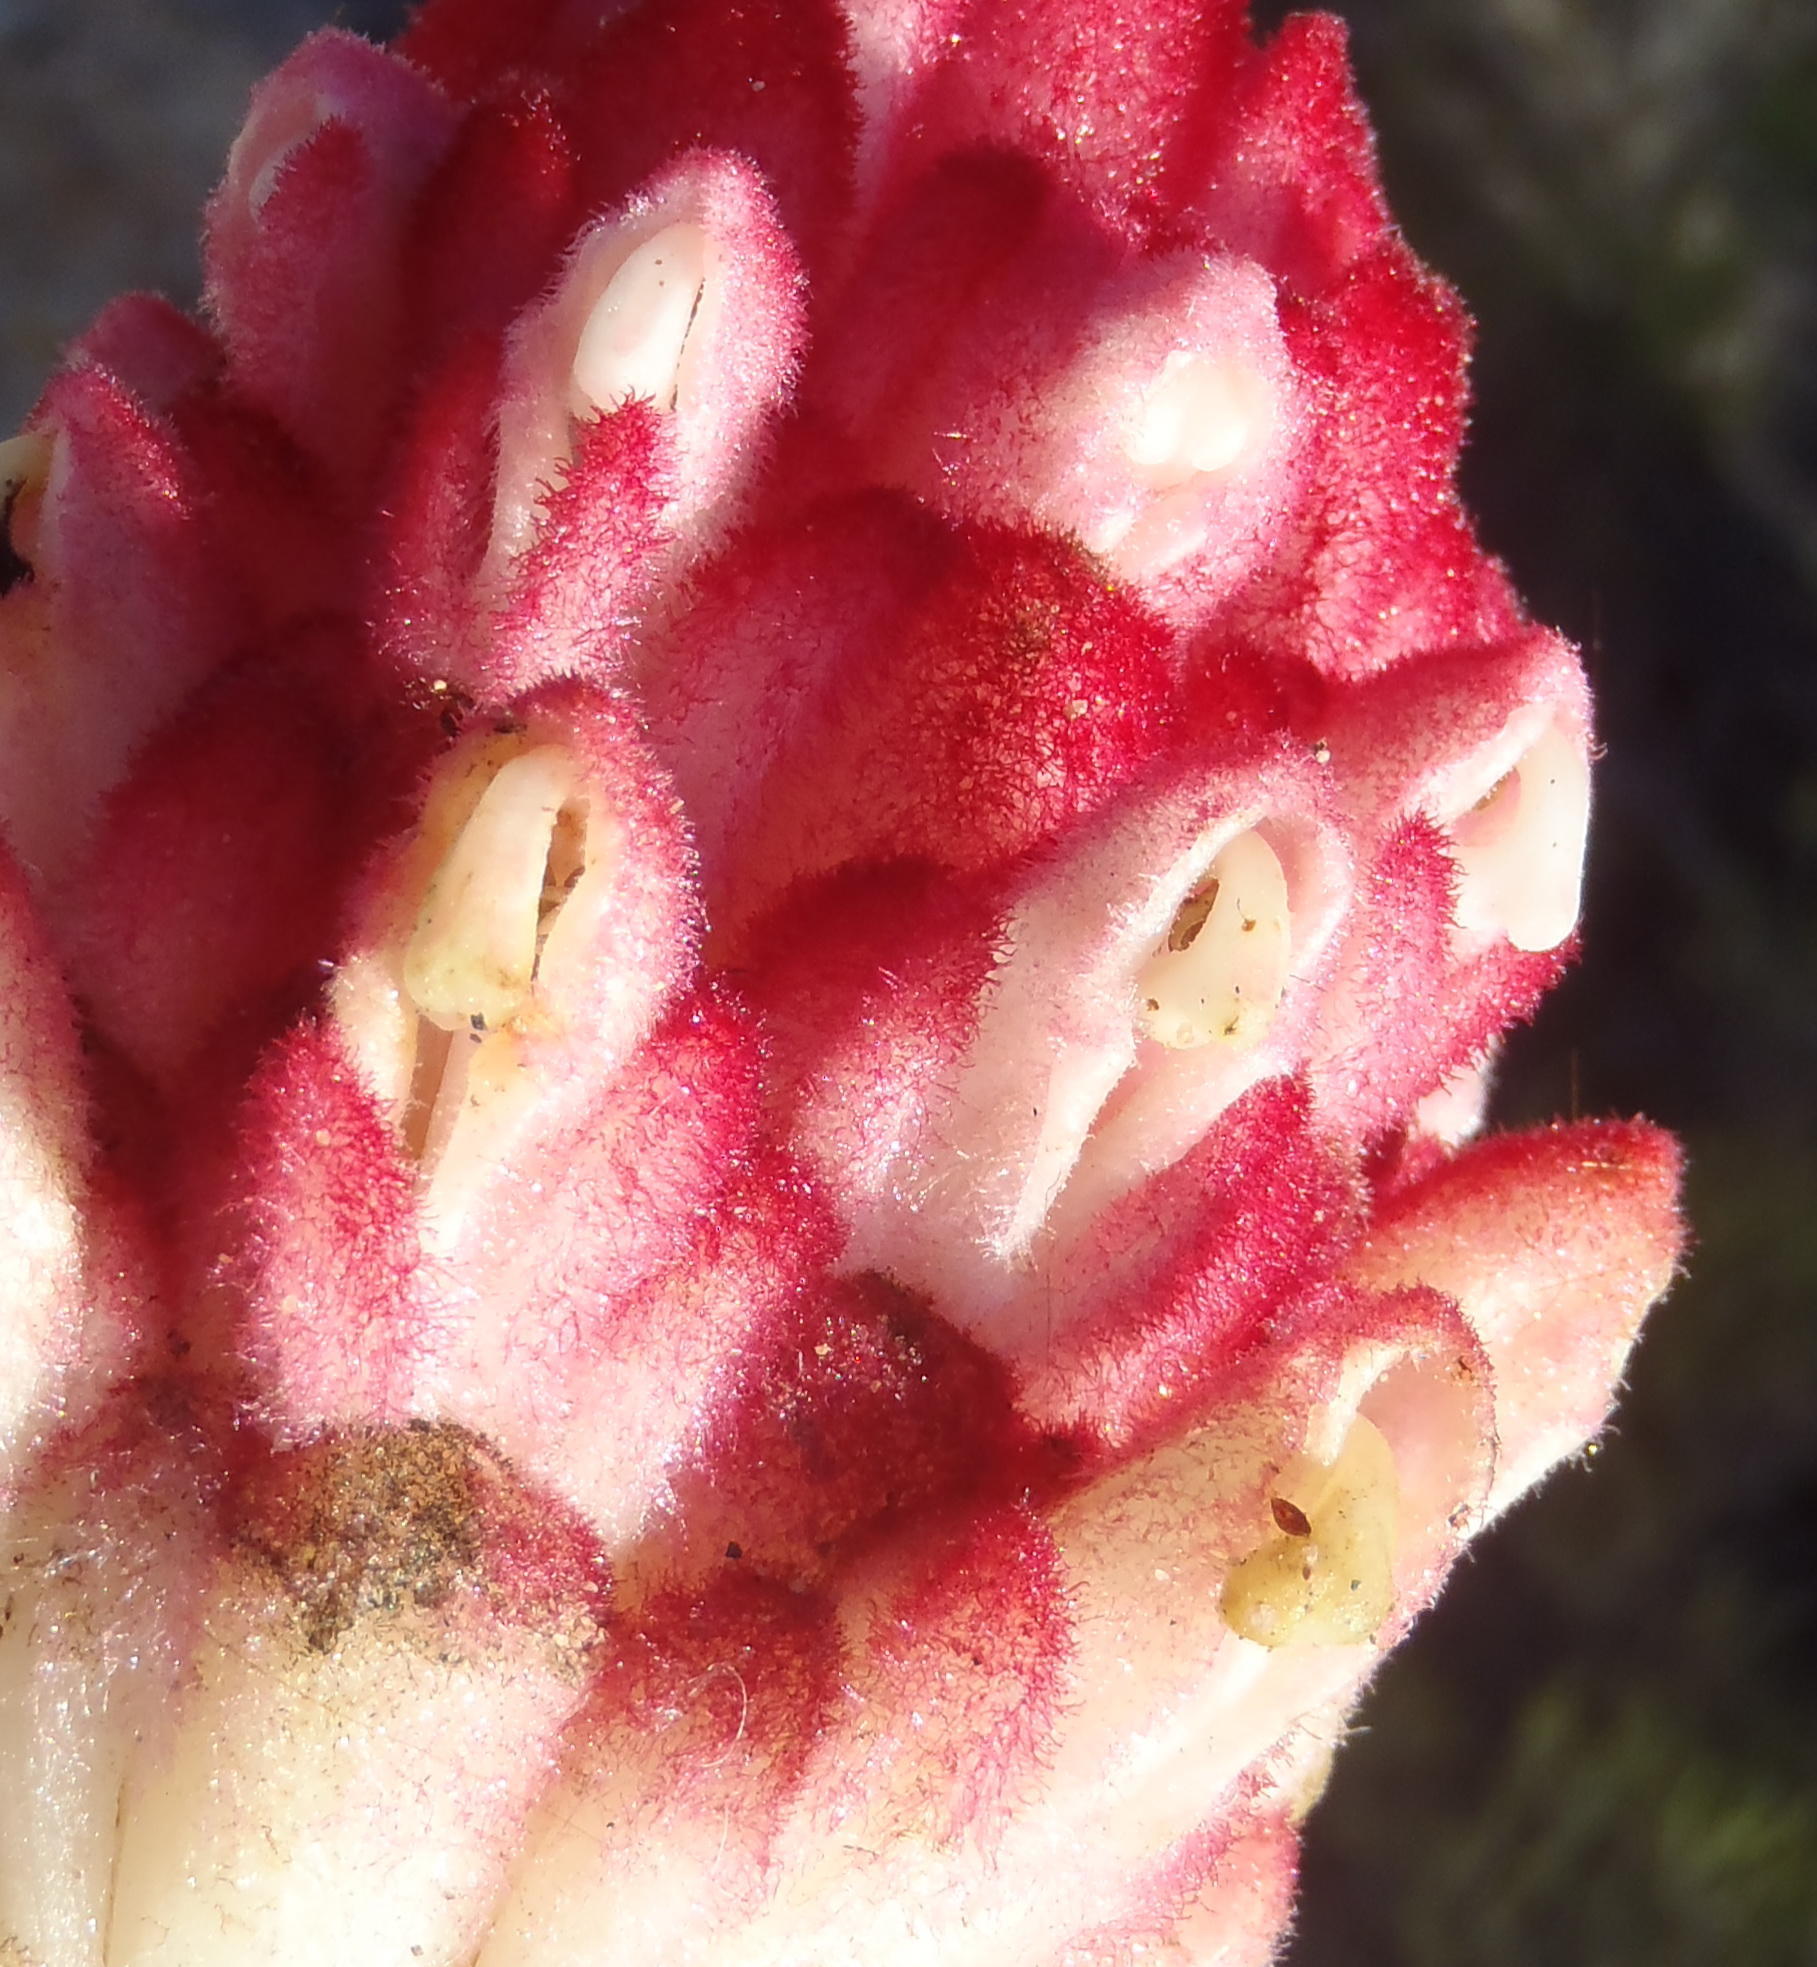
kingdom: Plantae
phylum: Tracheophyta
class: Magnoliopsida
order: Lamiales
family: Orobanchaceae
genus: Hyobanche
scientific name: Hyobanche sanguinea
